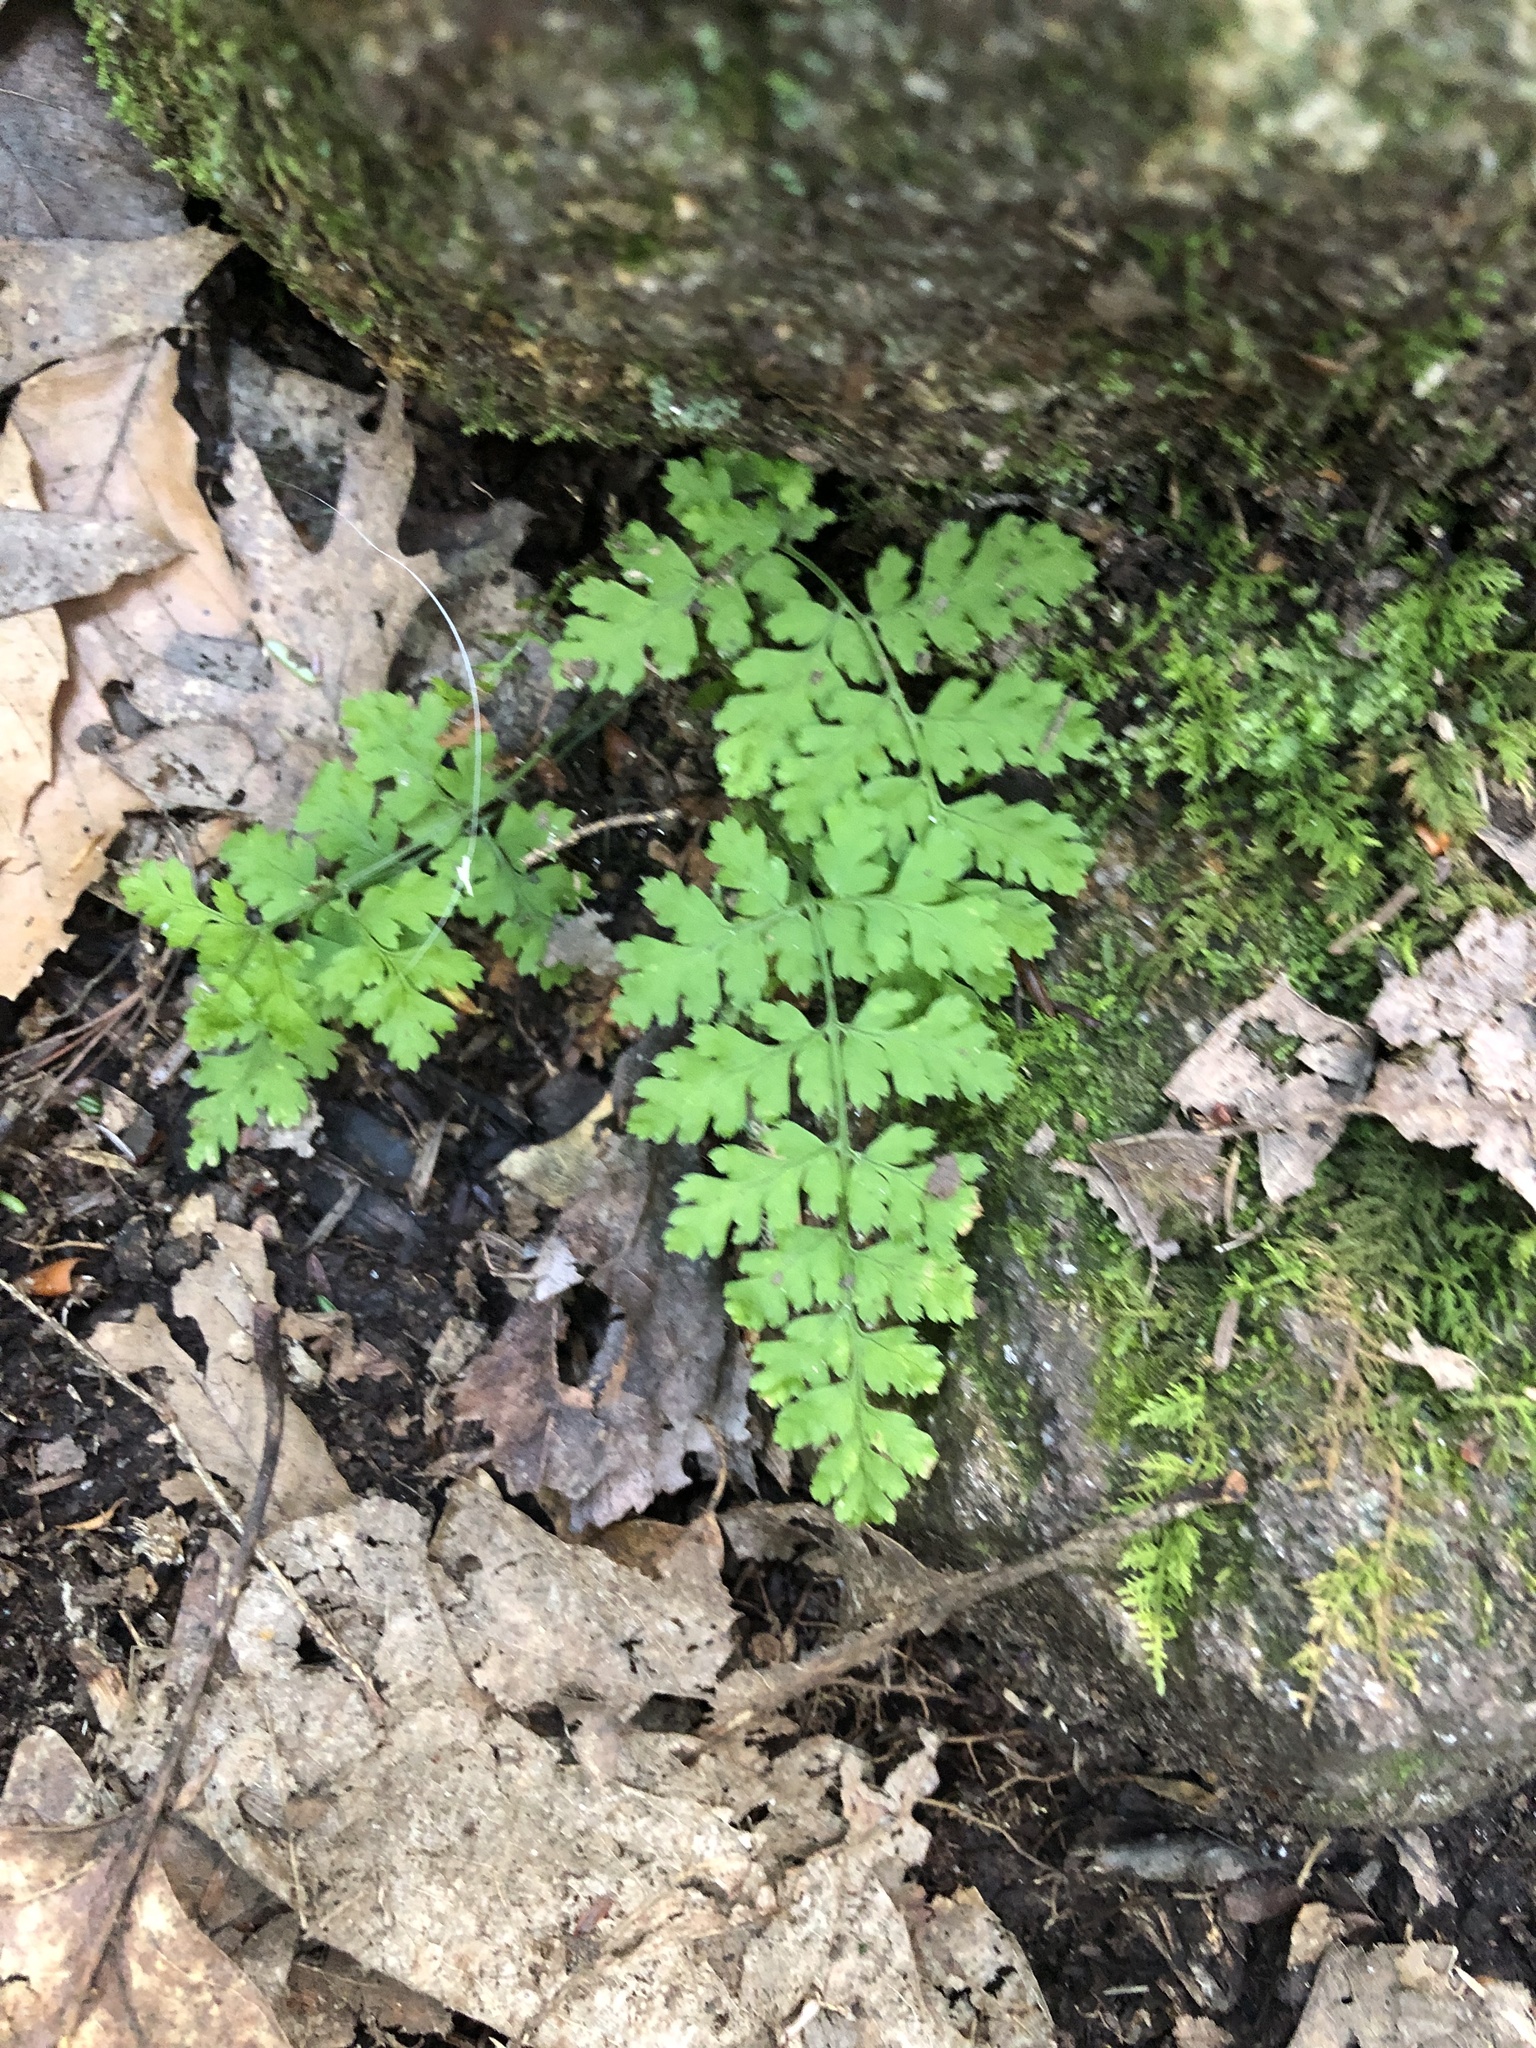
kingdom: Plantae
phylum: Tracheophyta
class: Polypodiopsida
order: Polypodiales
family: Cystopteridaceae
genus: Cystopteris
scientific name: Cystopteris tenuis
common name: Mackay's brittle fern
